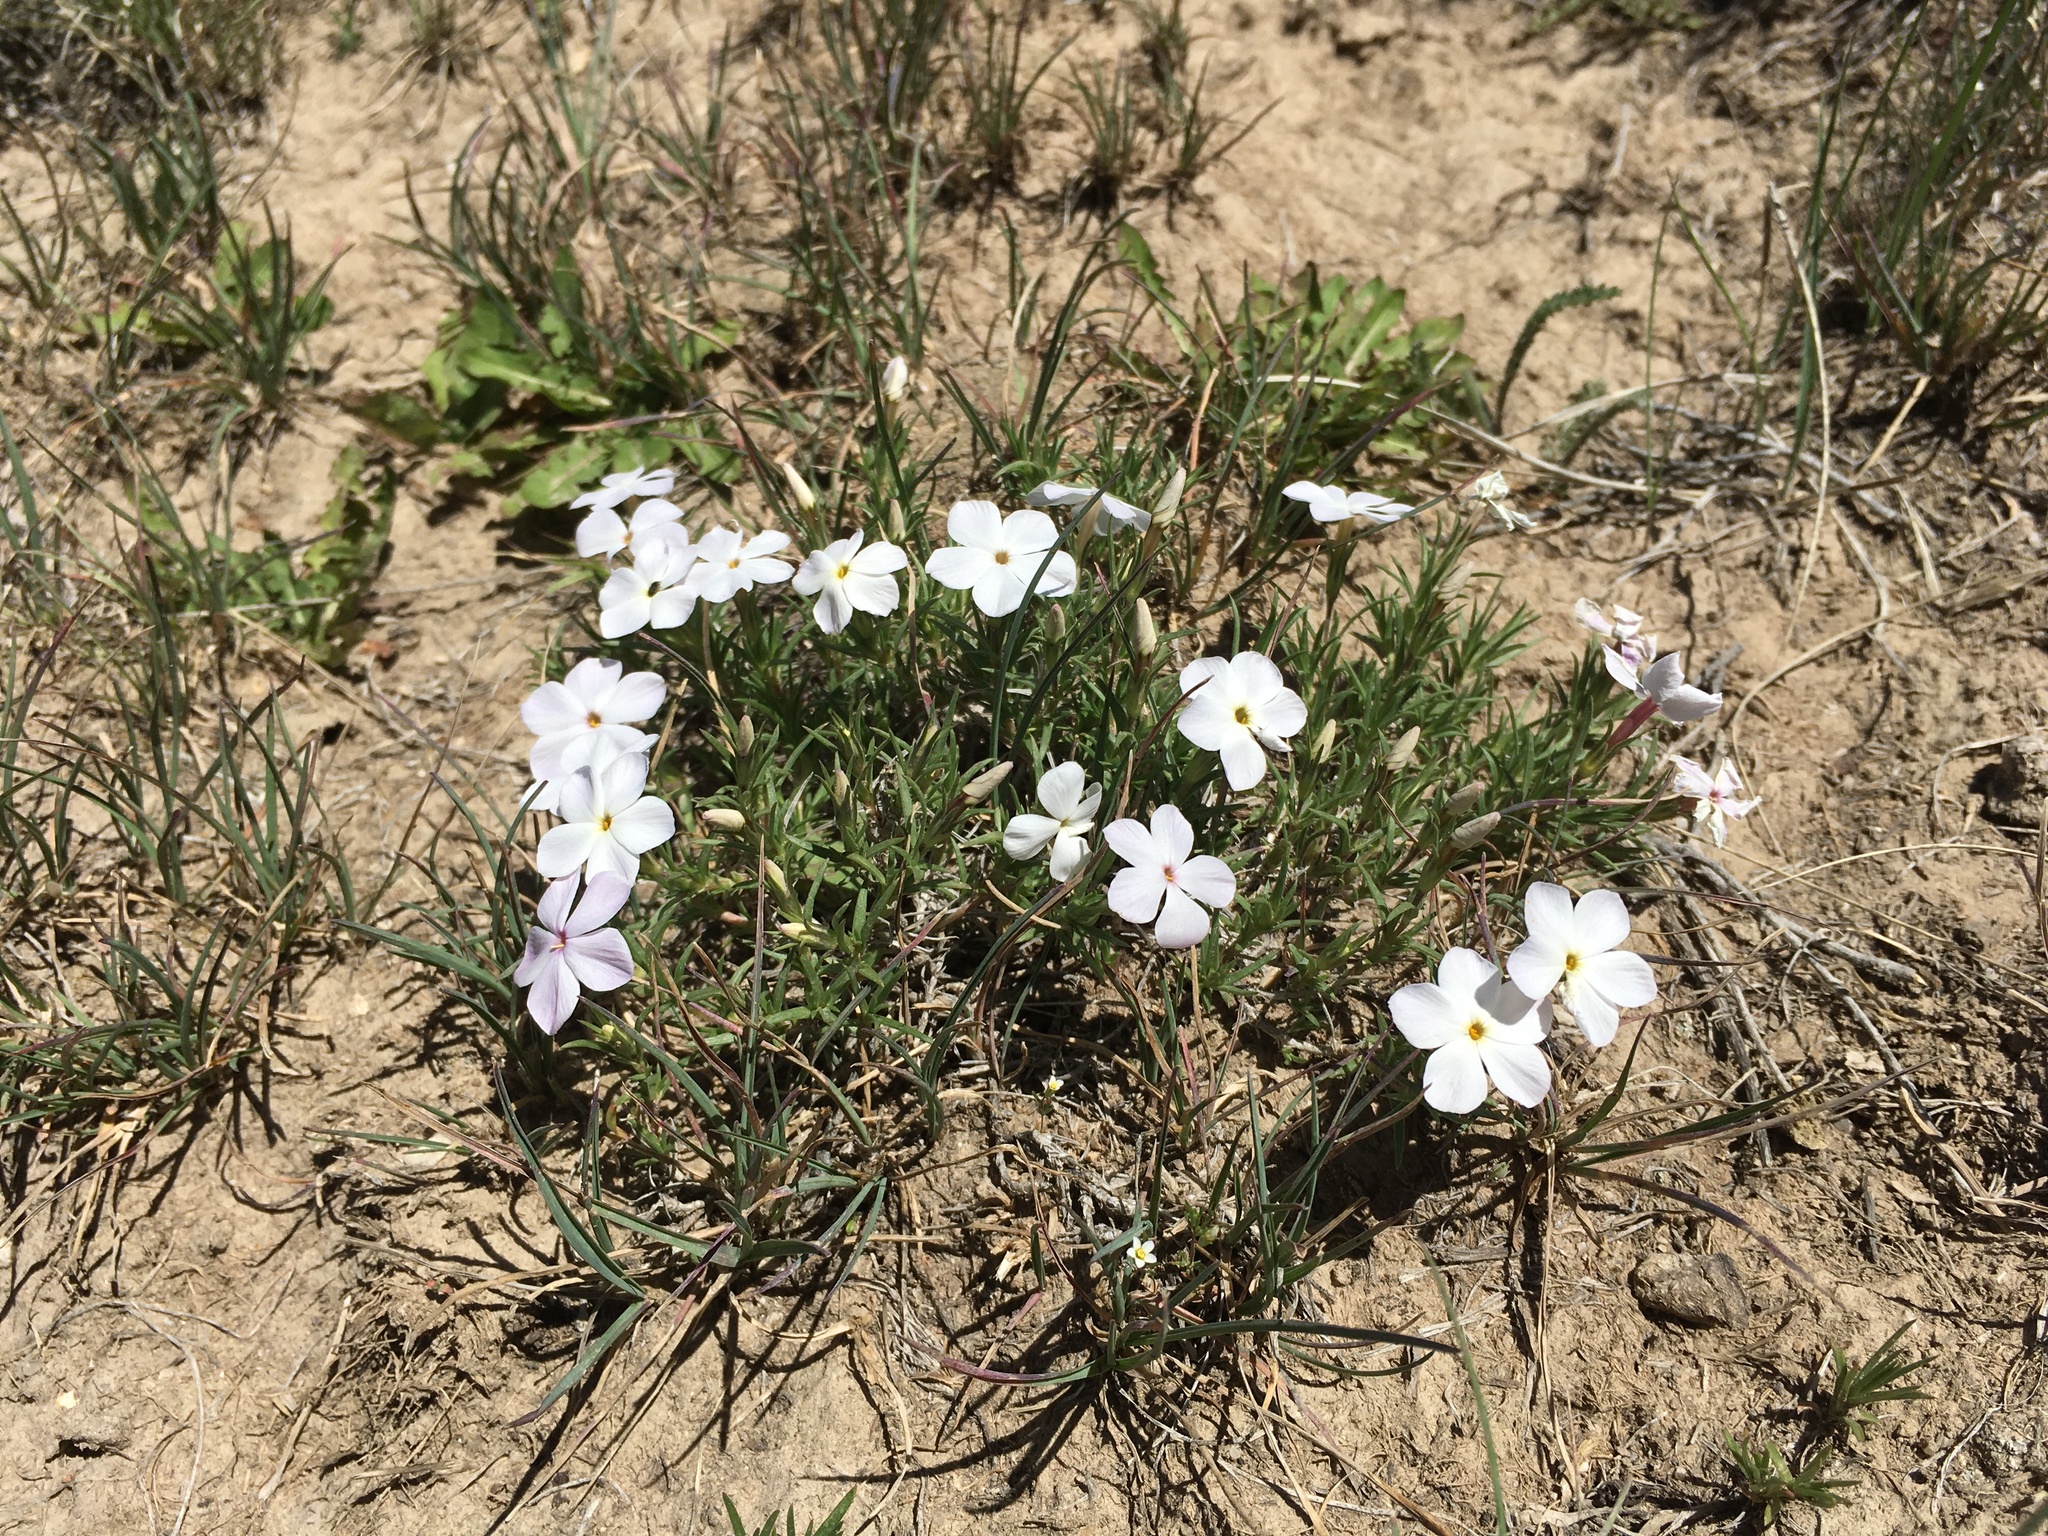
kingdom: Plantae
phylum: Tracheophyta
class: Magnoliopsida
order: Ericales
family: Polemoniaceae
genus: Phlox
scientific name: Phlox multiflora
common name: Rocky mountain phlox
